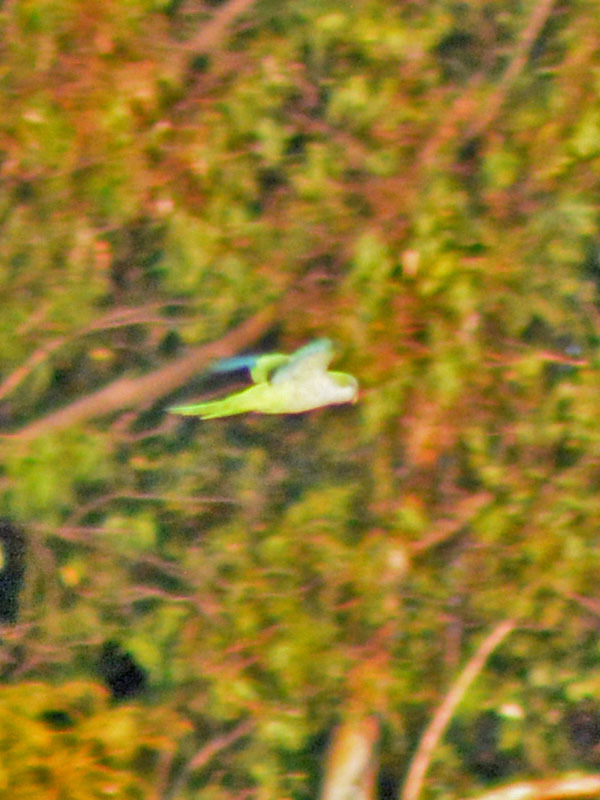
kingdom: Animalia
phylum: Chordata
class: Aves
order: Psittaciformes
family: Psittacidae
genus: Myiopsitta
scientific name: Myiopsitta monachus
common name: Monk parakeet
